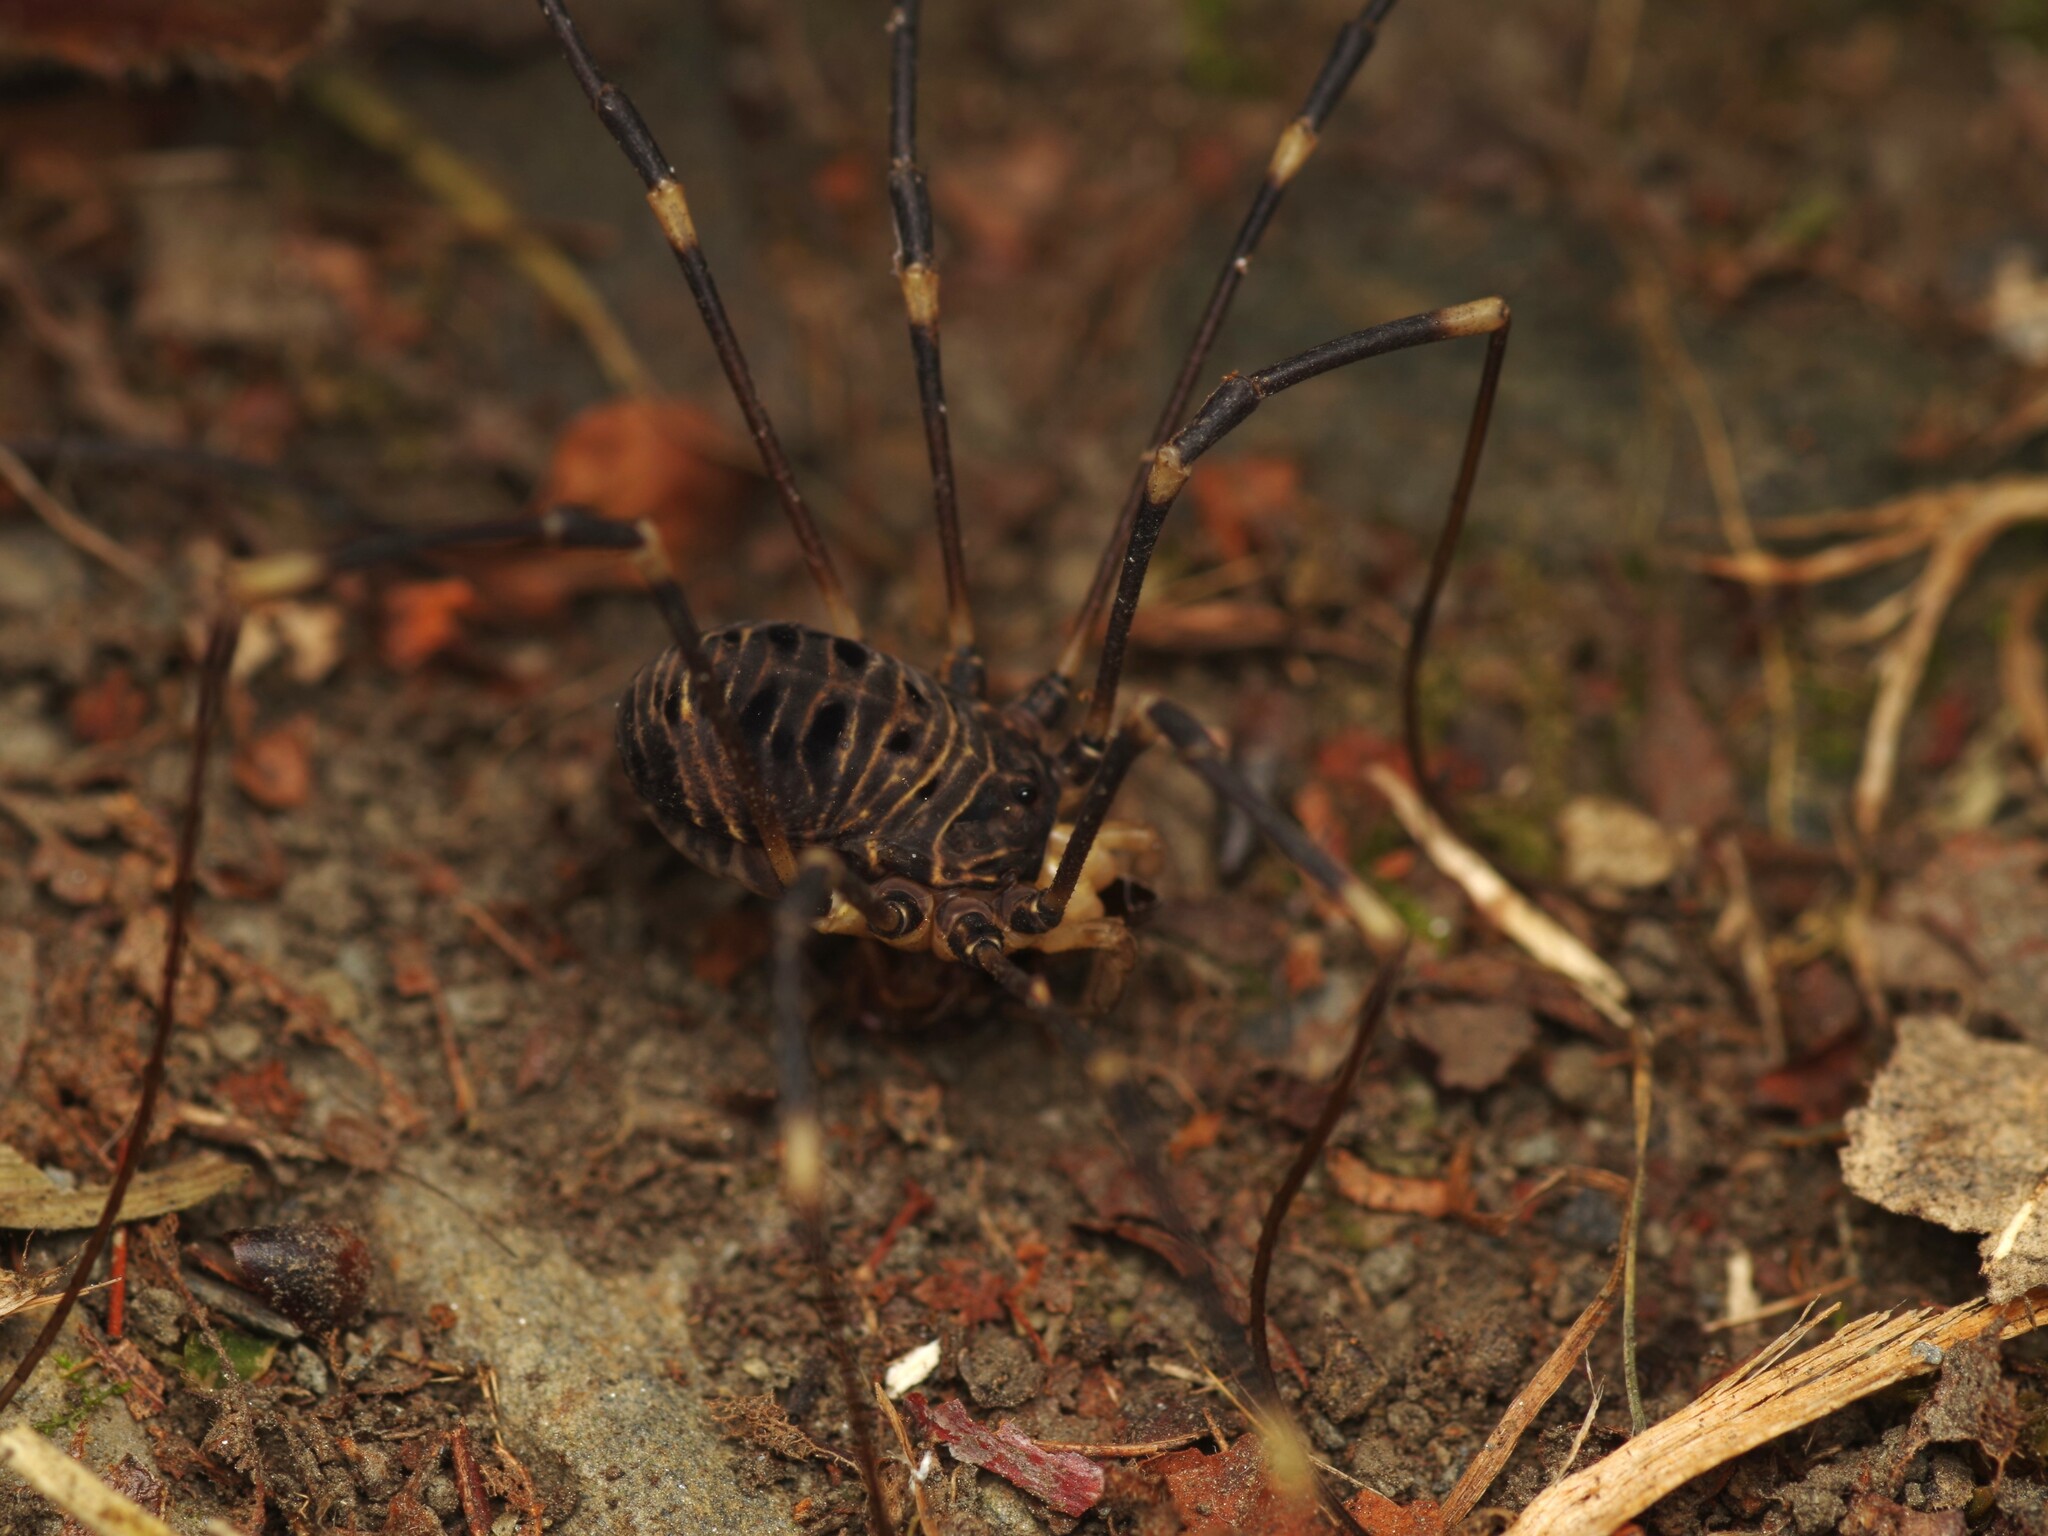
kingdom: Animalia
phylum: Arthropoda
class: Arachnida
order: Opiliones
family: Sclerosomatidae
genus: Gyas
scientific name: Gyas titanus
